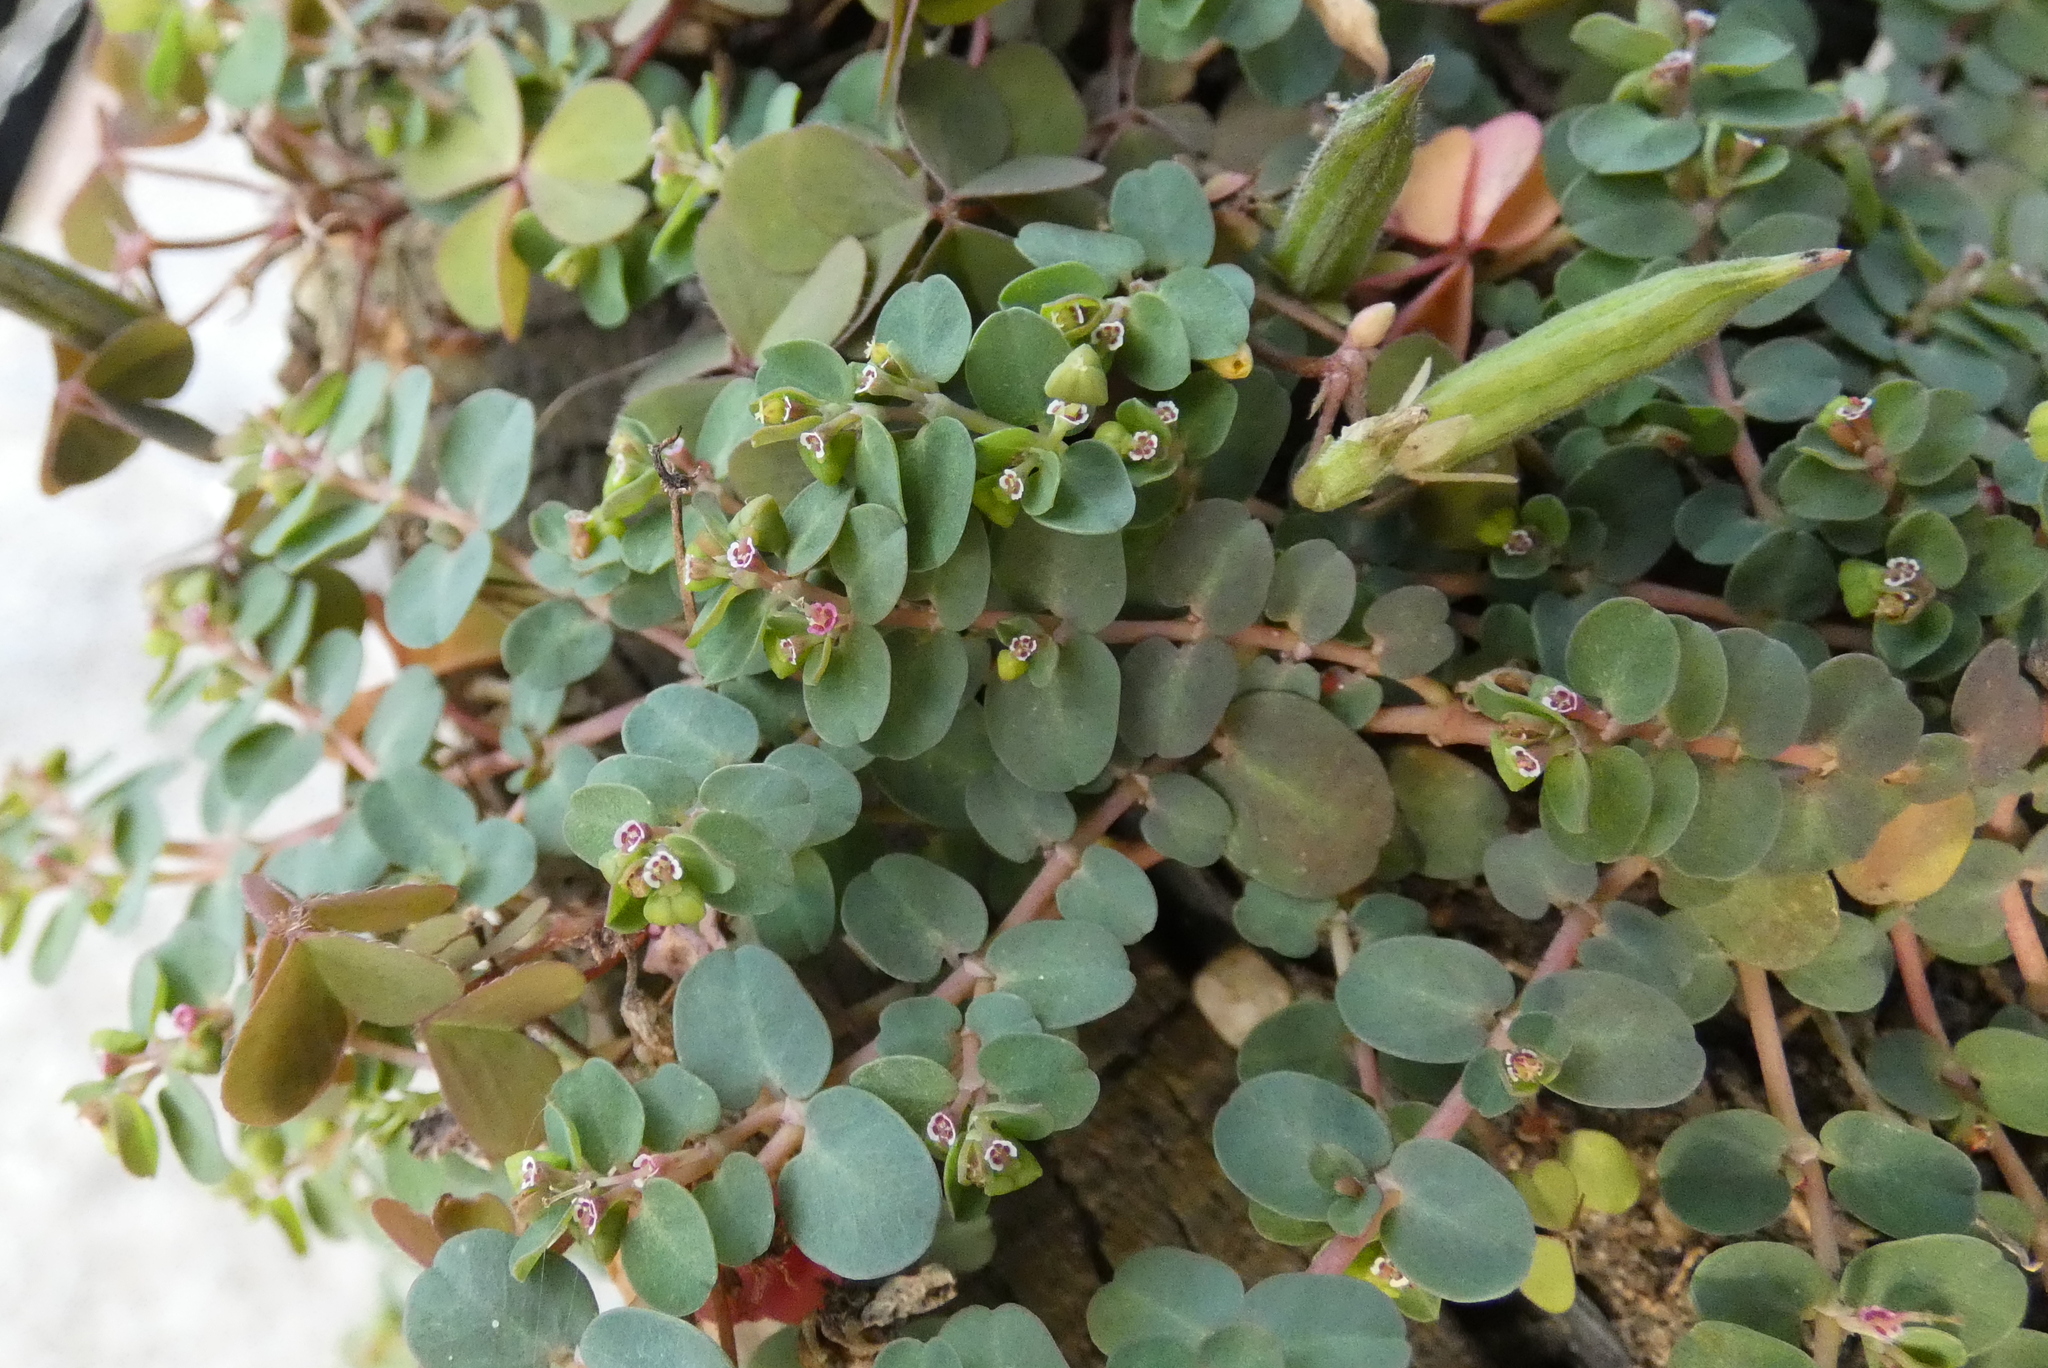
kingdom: Plantae
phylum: Tracheophyta
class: Magnoliopsida
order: Malpighiales
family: Euphorbiaceae
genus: Euphorbia
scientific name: Euphorbia serpens
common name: Matted sandmat
